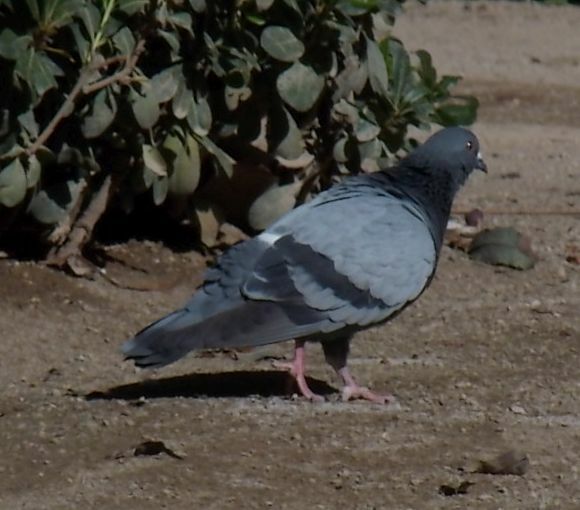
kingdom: Animalia
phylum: Chordata
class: Aves
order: Columbiformes
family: Columbidae
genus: Columba
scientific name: Columba livia
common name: Rock pigeon
